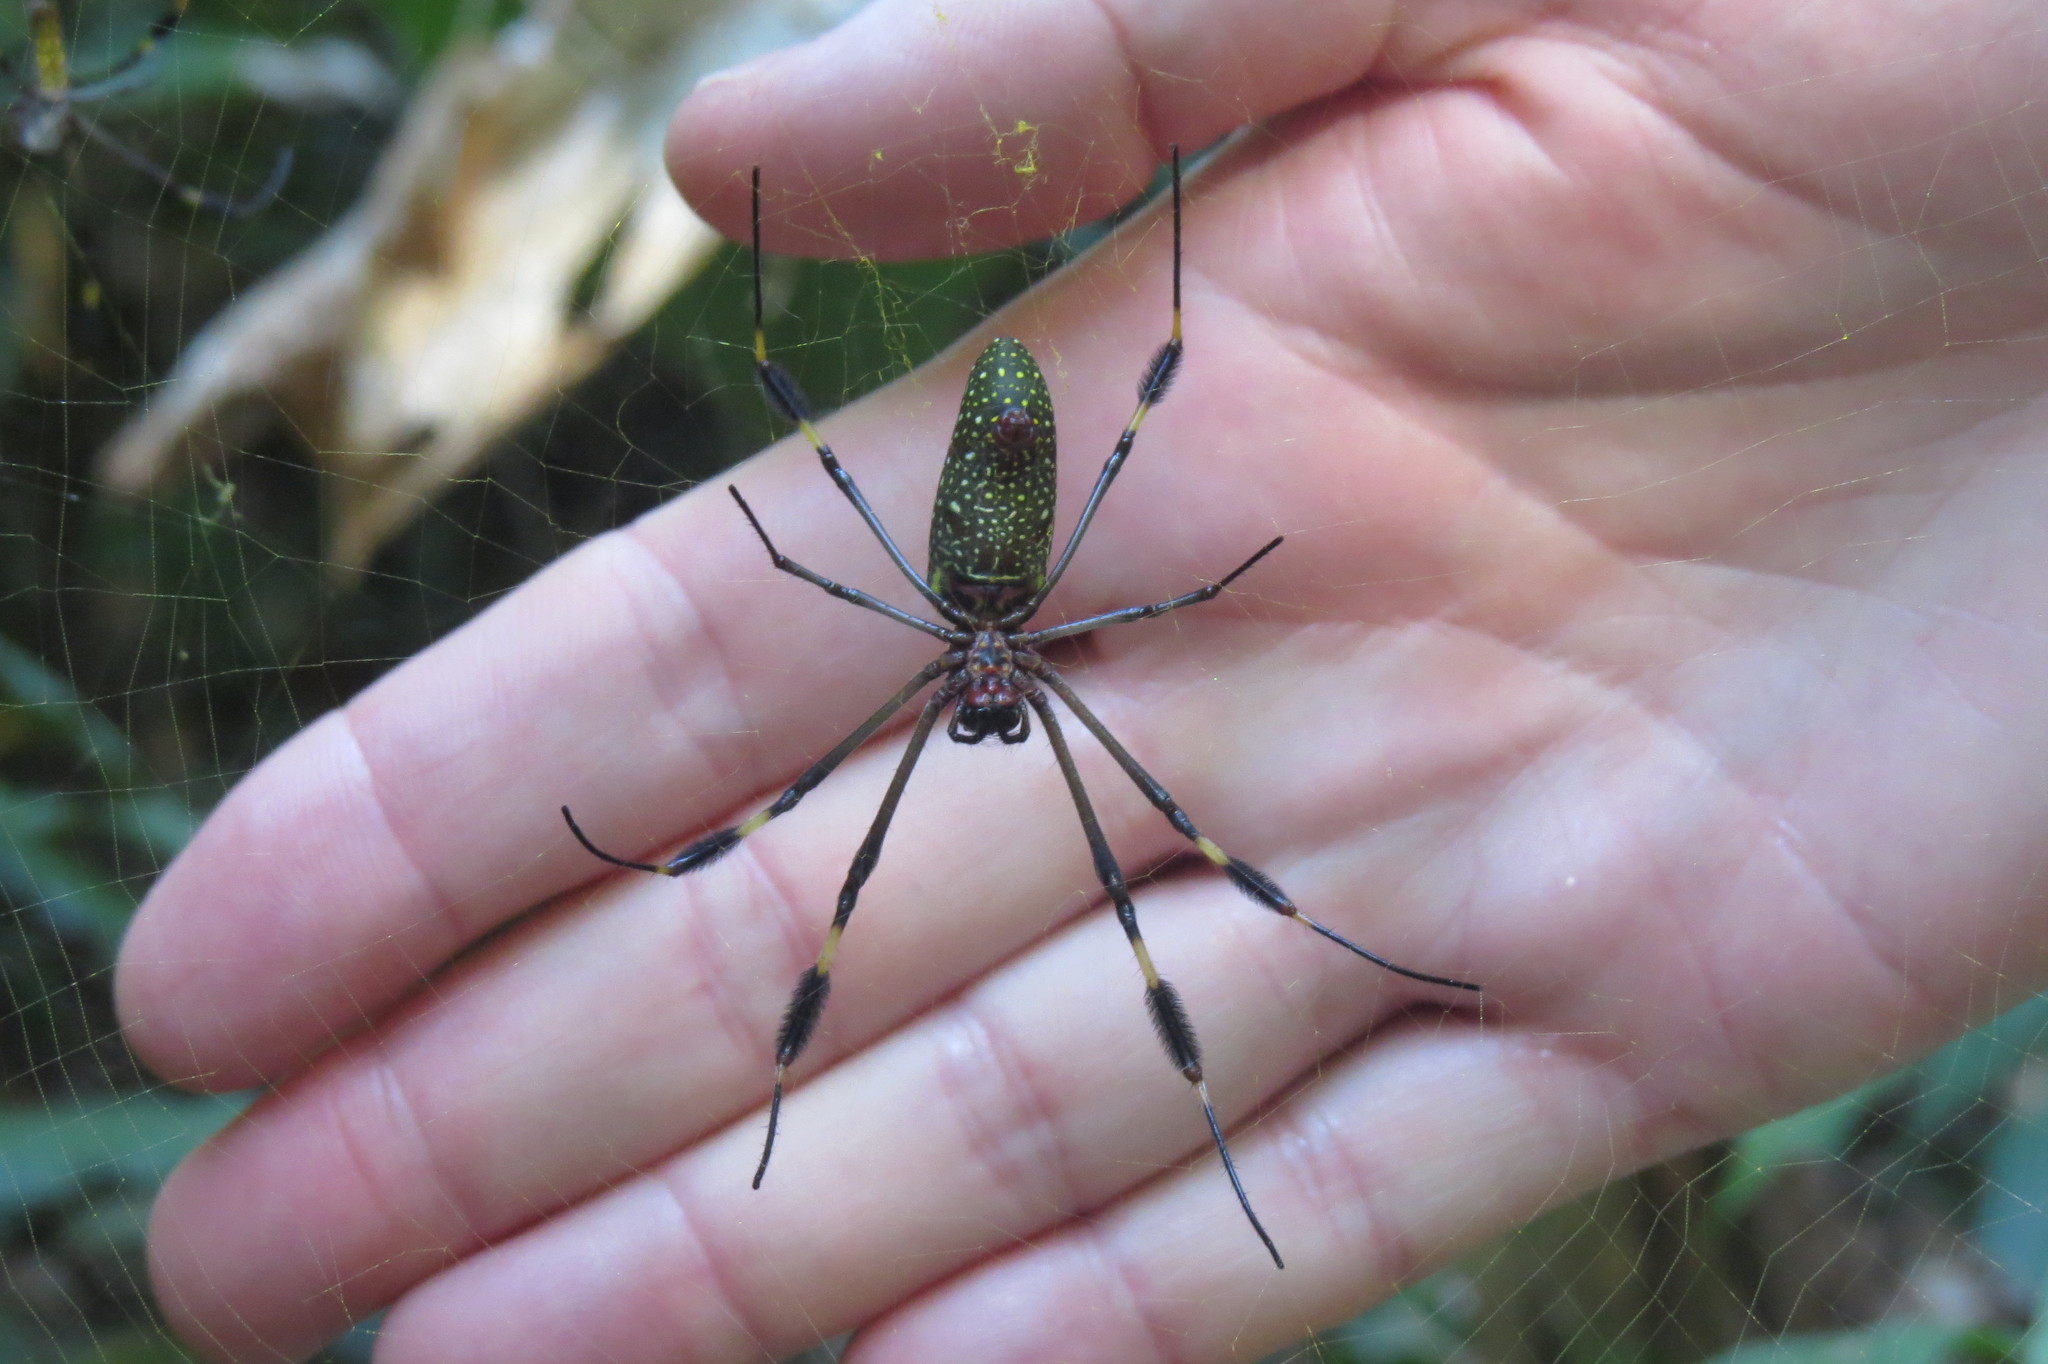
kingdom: Animalia
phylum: Arthropoda
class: Arachnida
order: Araneae
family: Araneidae
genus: Trichonephila
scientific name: Trichonephila clavipes
